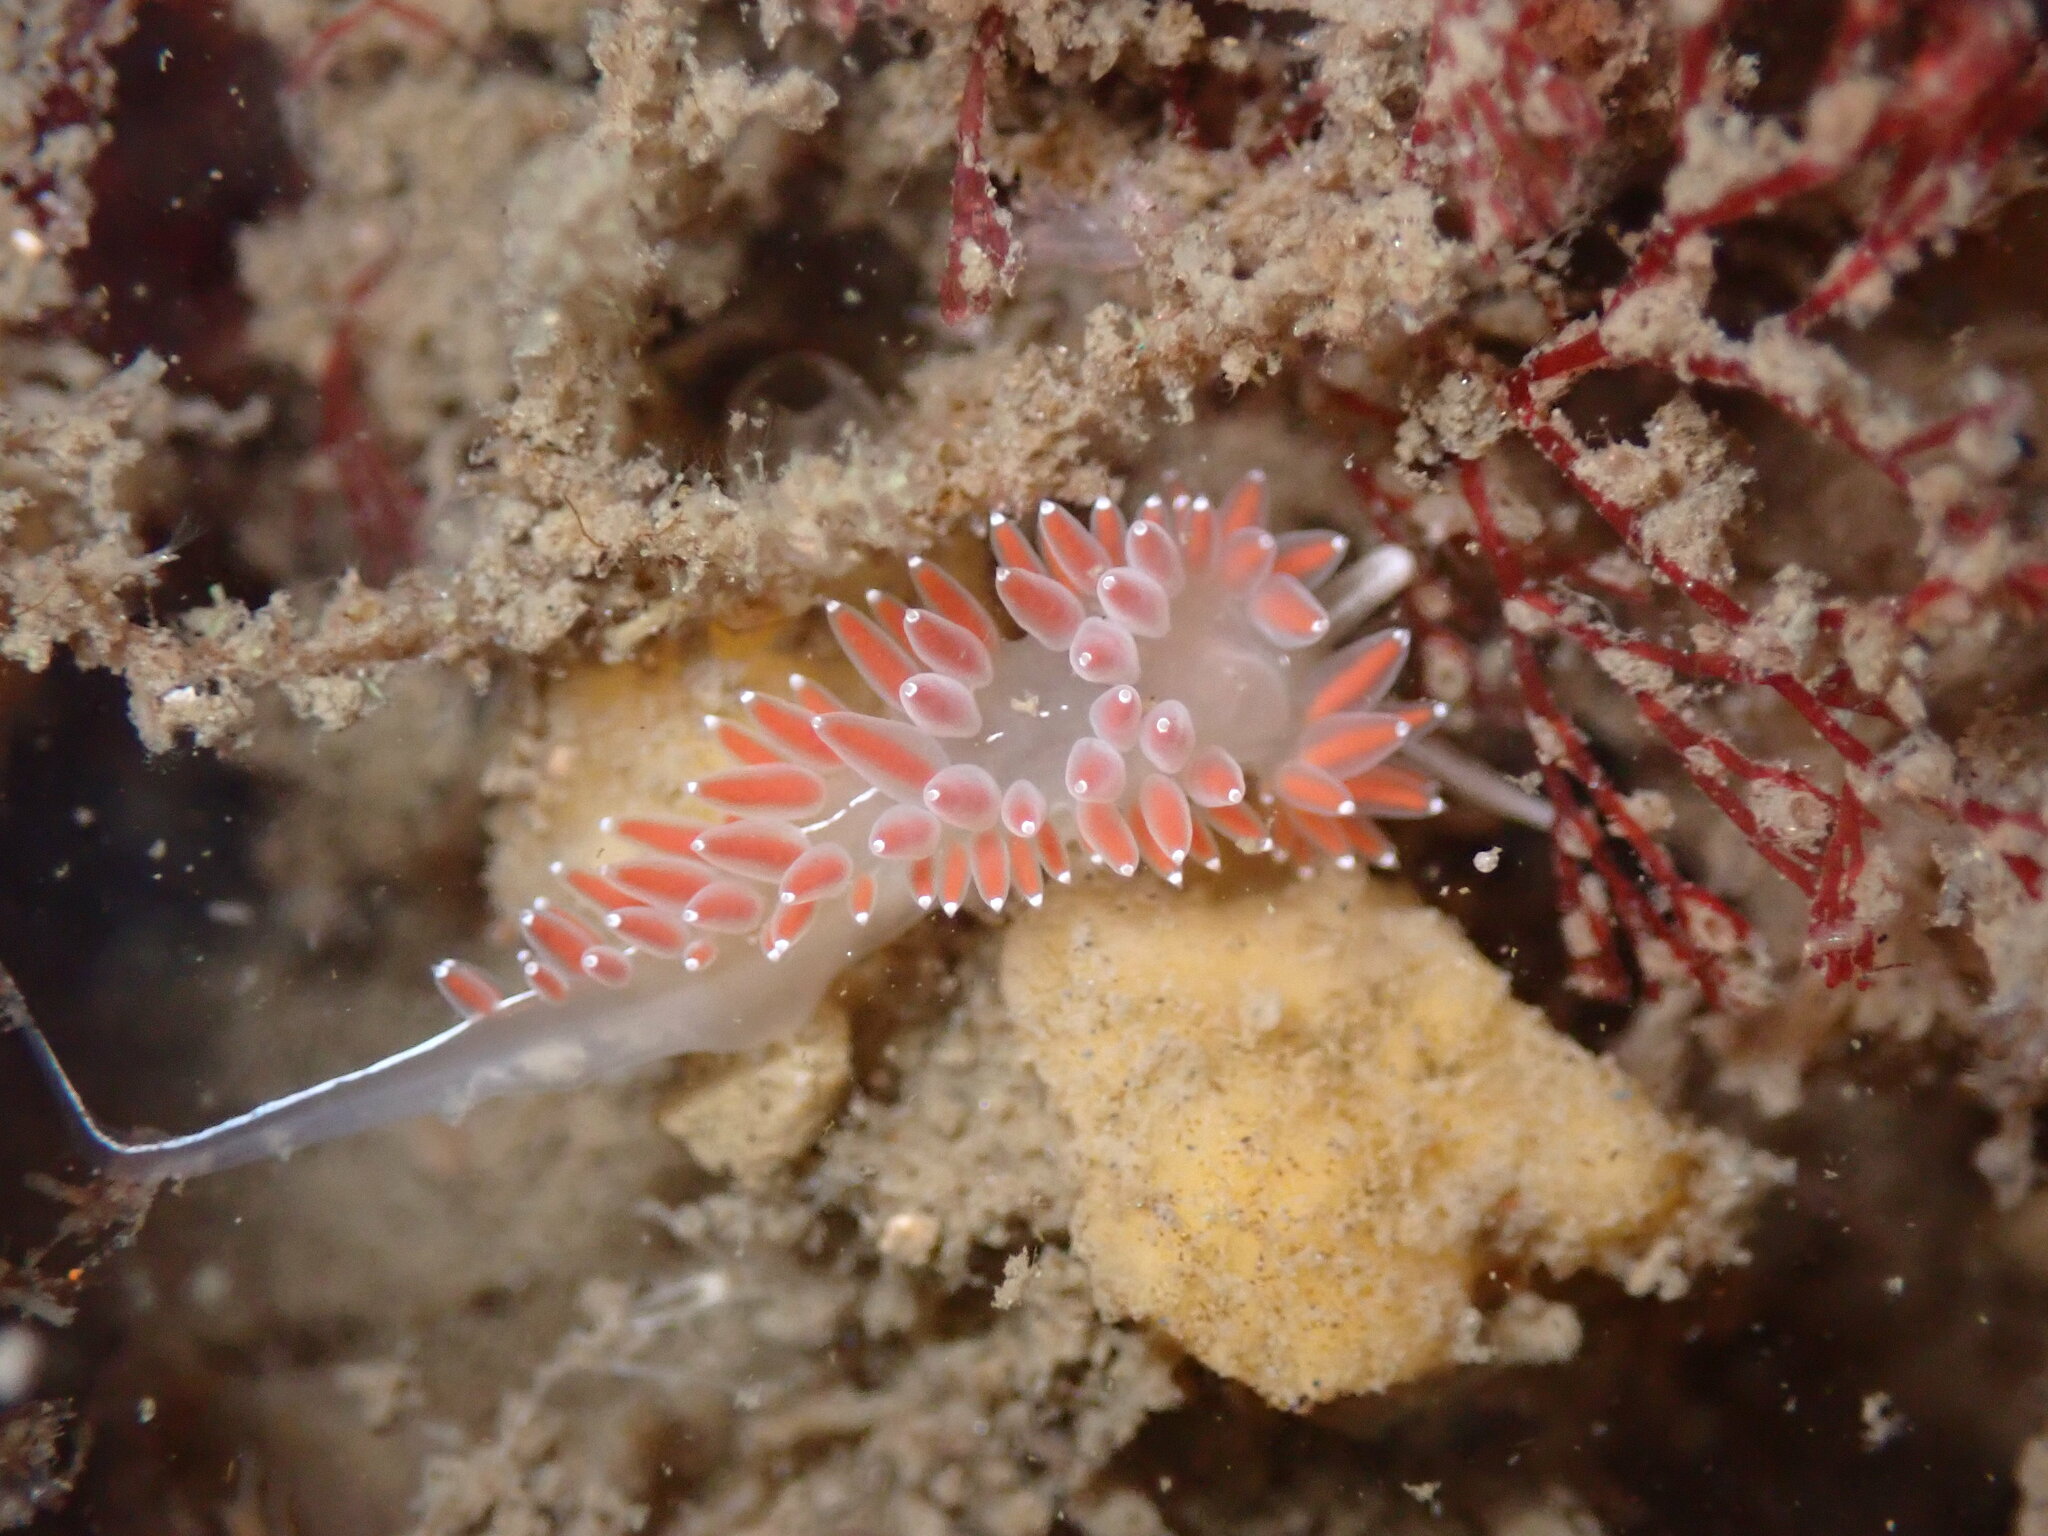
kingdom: Animalia
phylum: Mollusca
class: Gastropoda
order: Nudibranchia
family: Coryphellidae
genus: Coryphella
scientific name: Coryphella verrucosa
